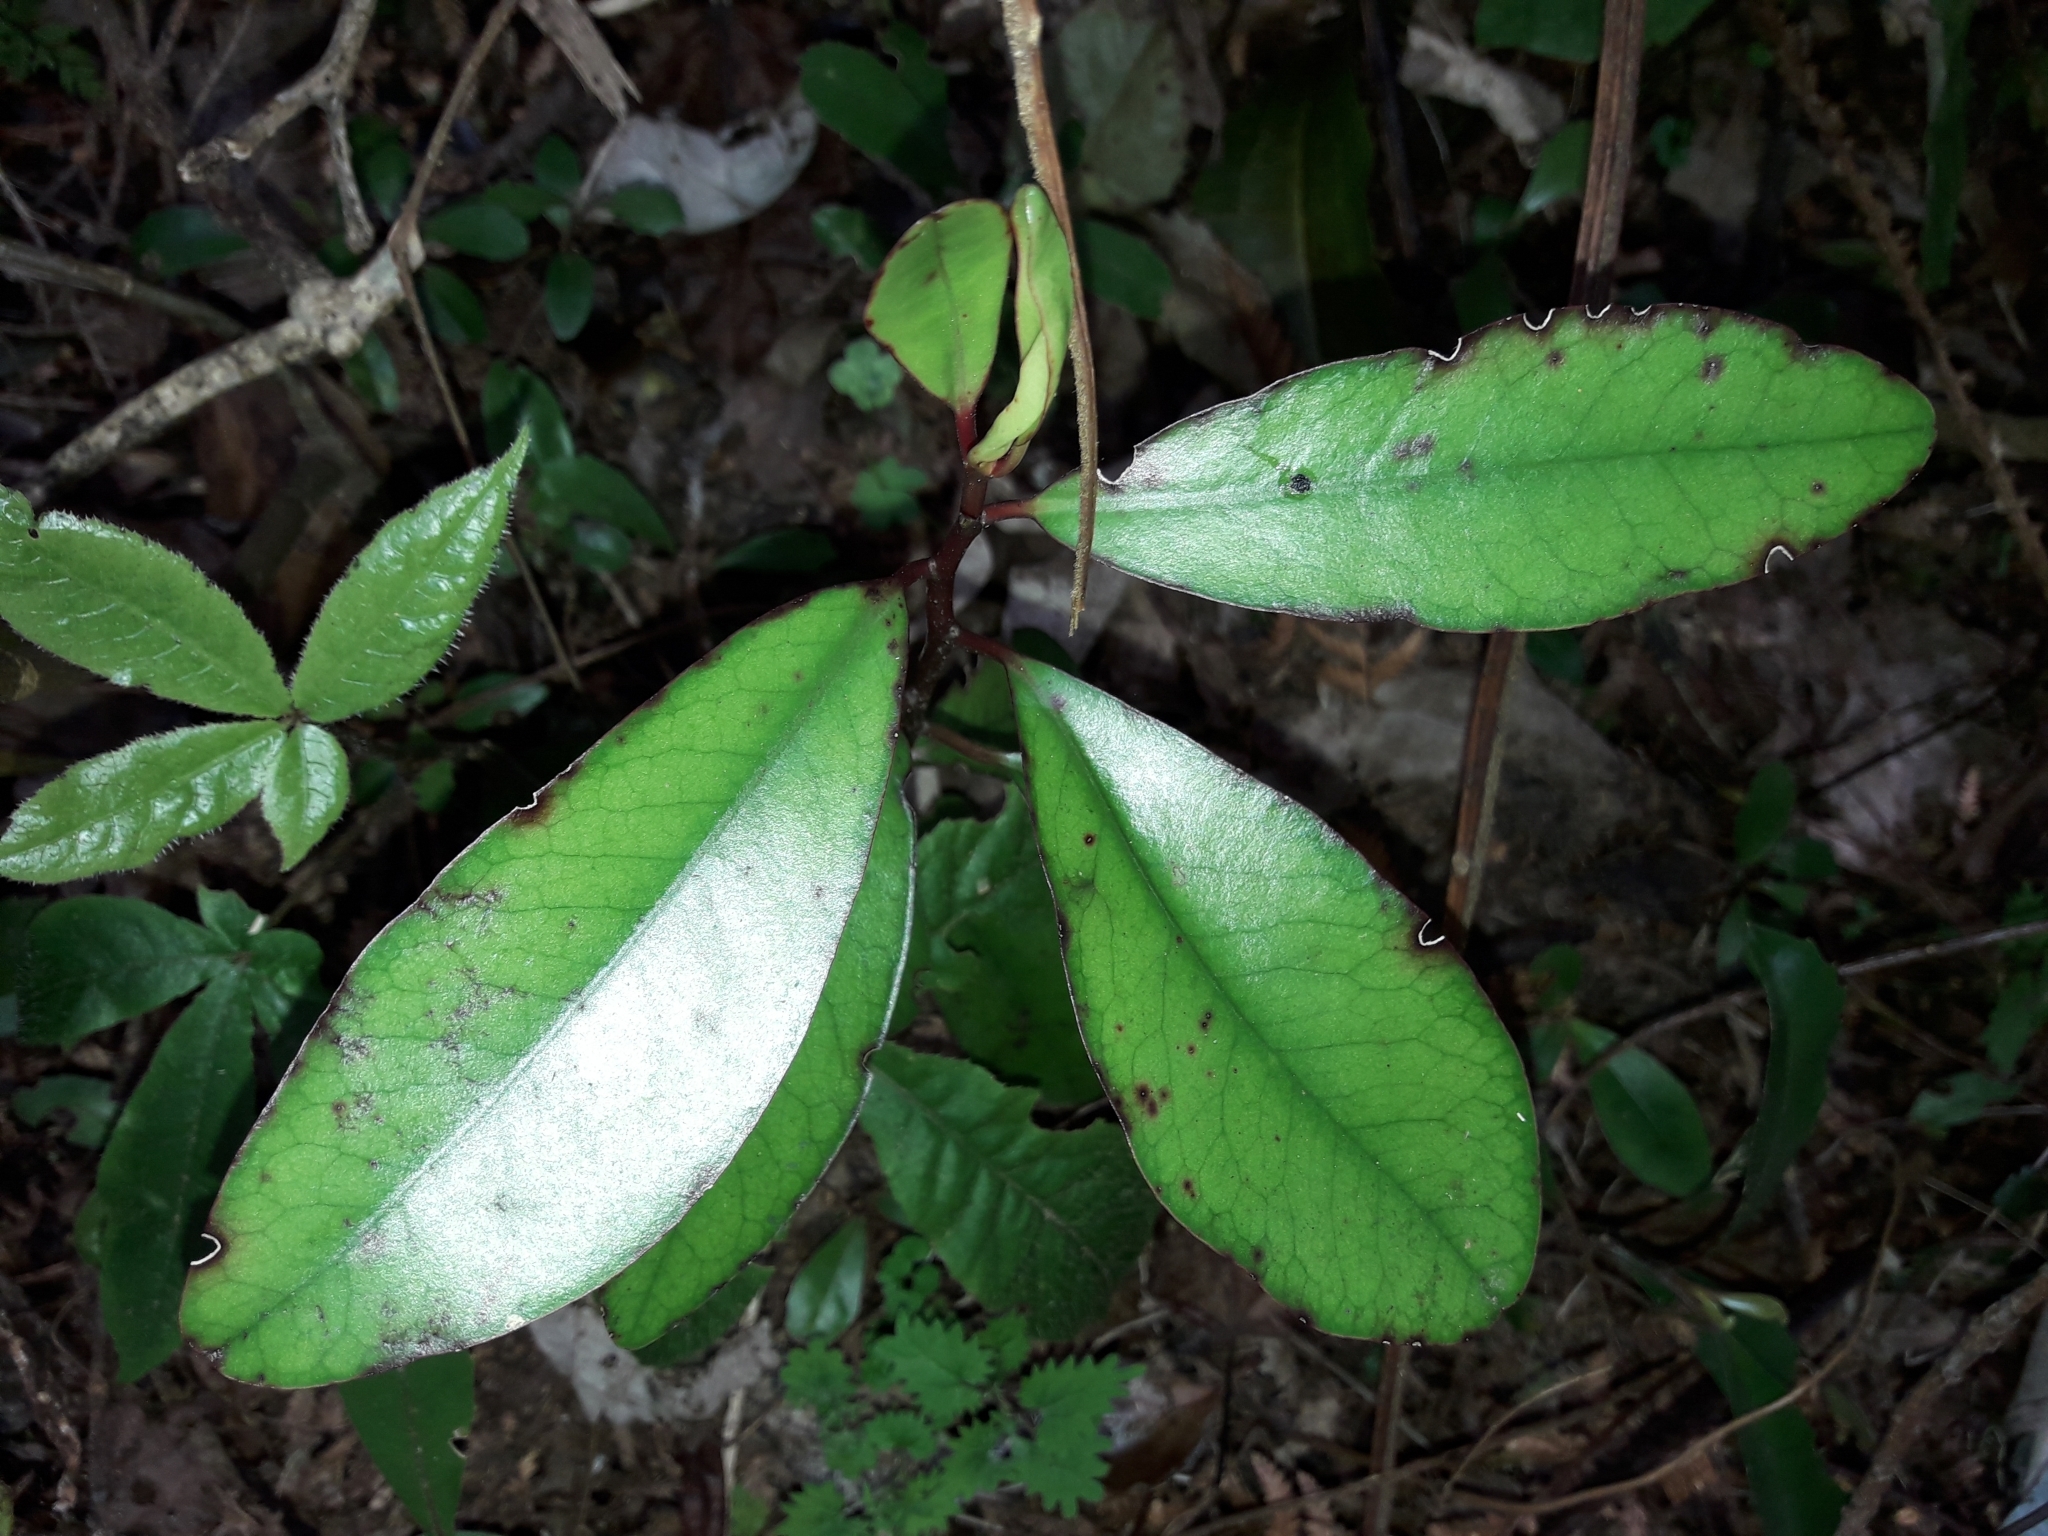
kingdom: Plantae
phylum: Tracheophyta
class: Magnoliopsida
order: Canellales
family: Winteraceae
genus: Pseudowintera
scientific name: Pseudowintera colorata
